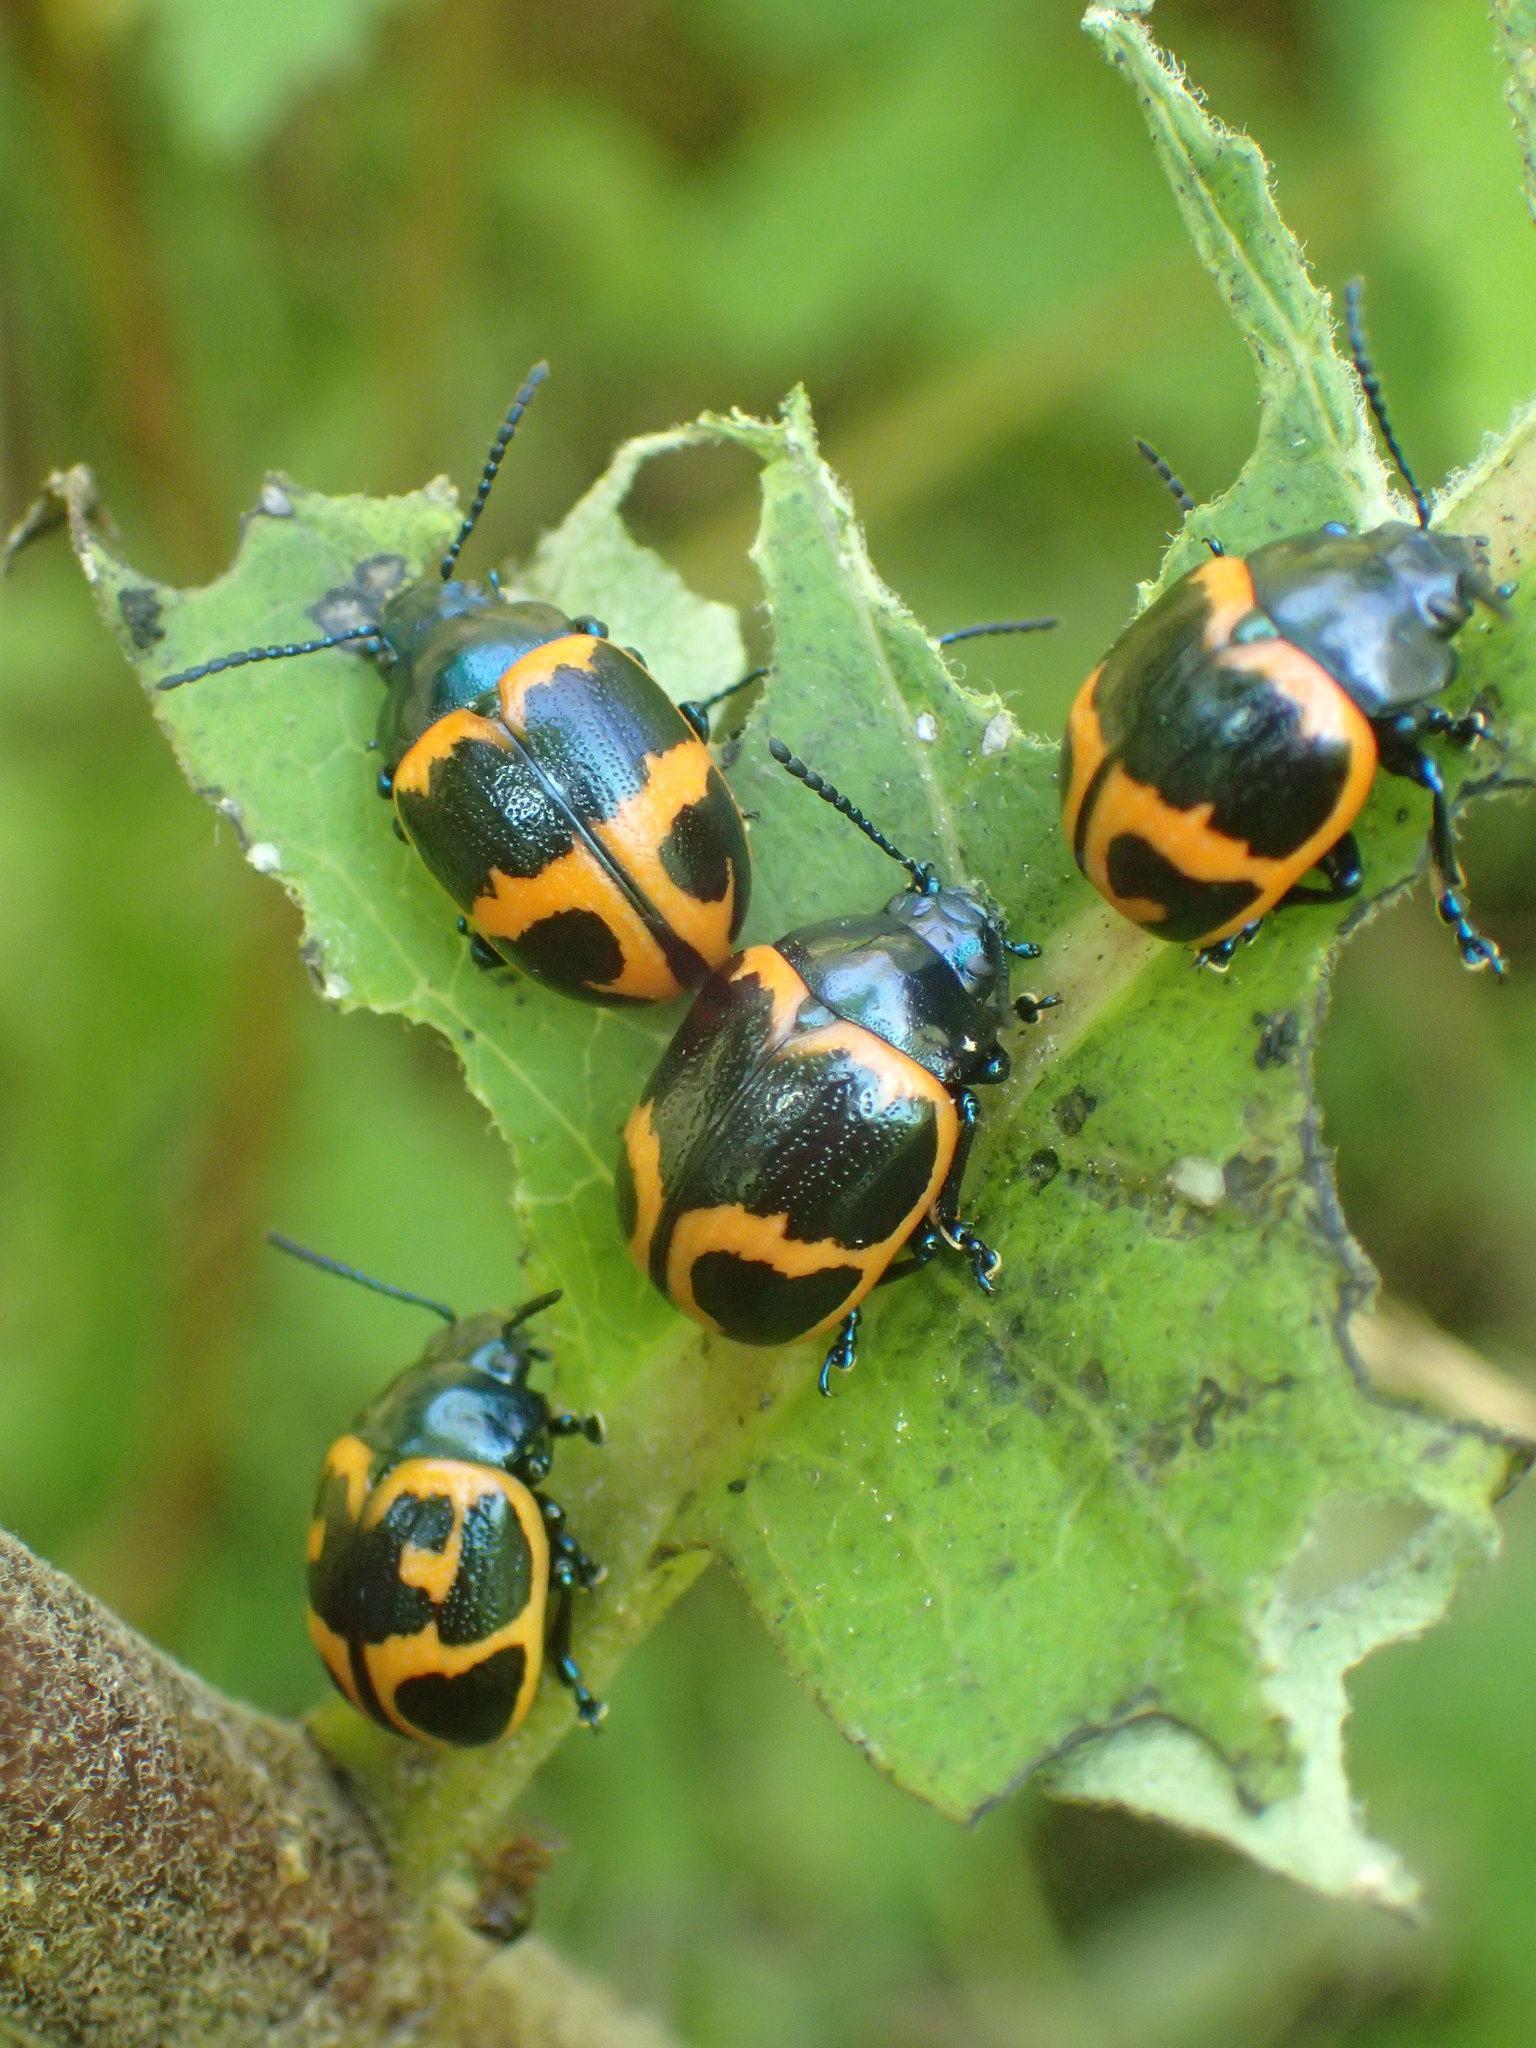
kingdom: Animalia
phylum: Arthropoda
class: Insecta
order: Coleoptera
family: Chrysomelidae
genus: Labidomera
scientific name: Labidomera clivicollis
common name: Swamp milkweed leaf beetle
